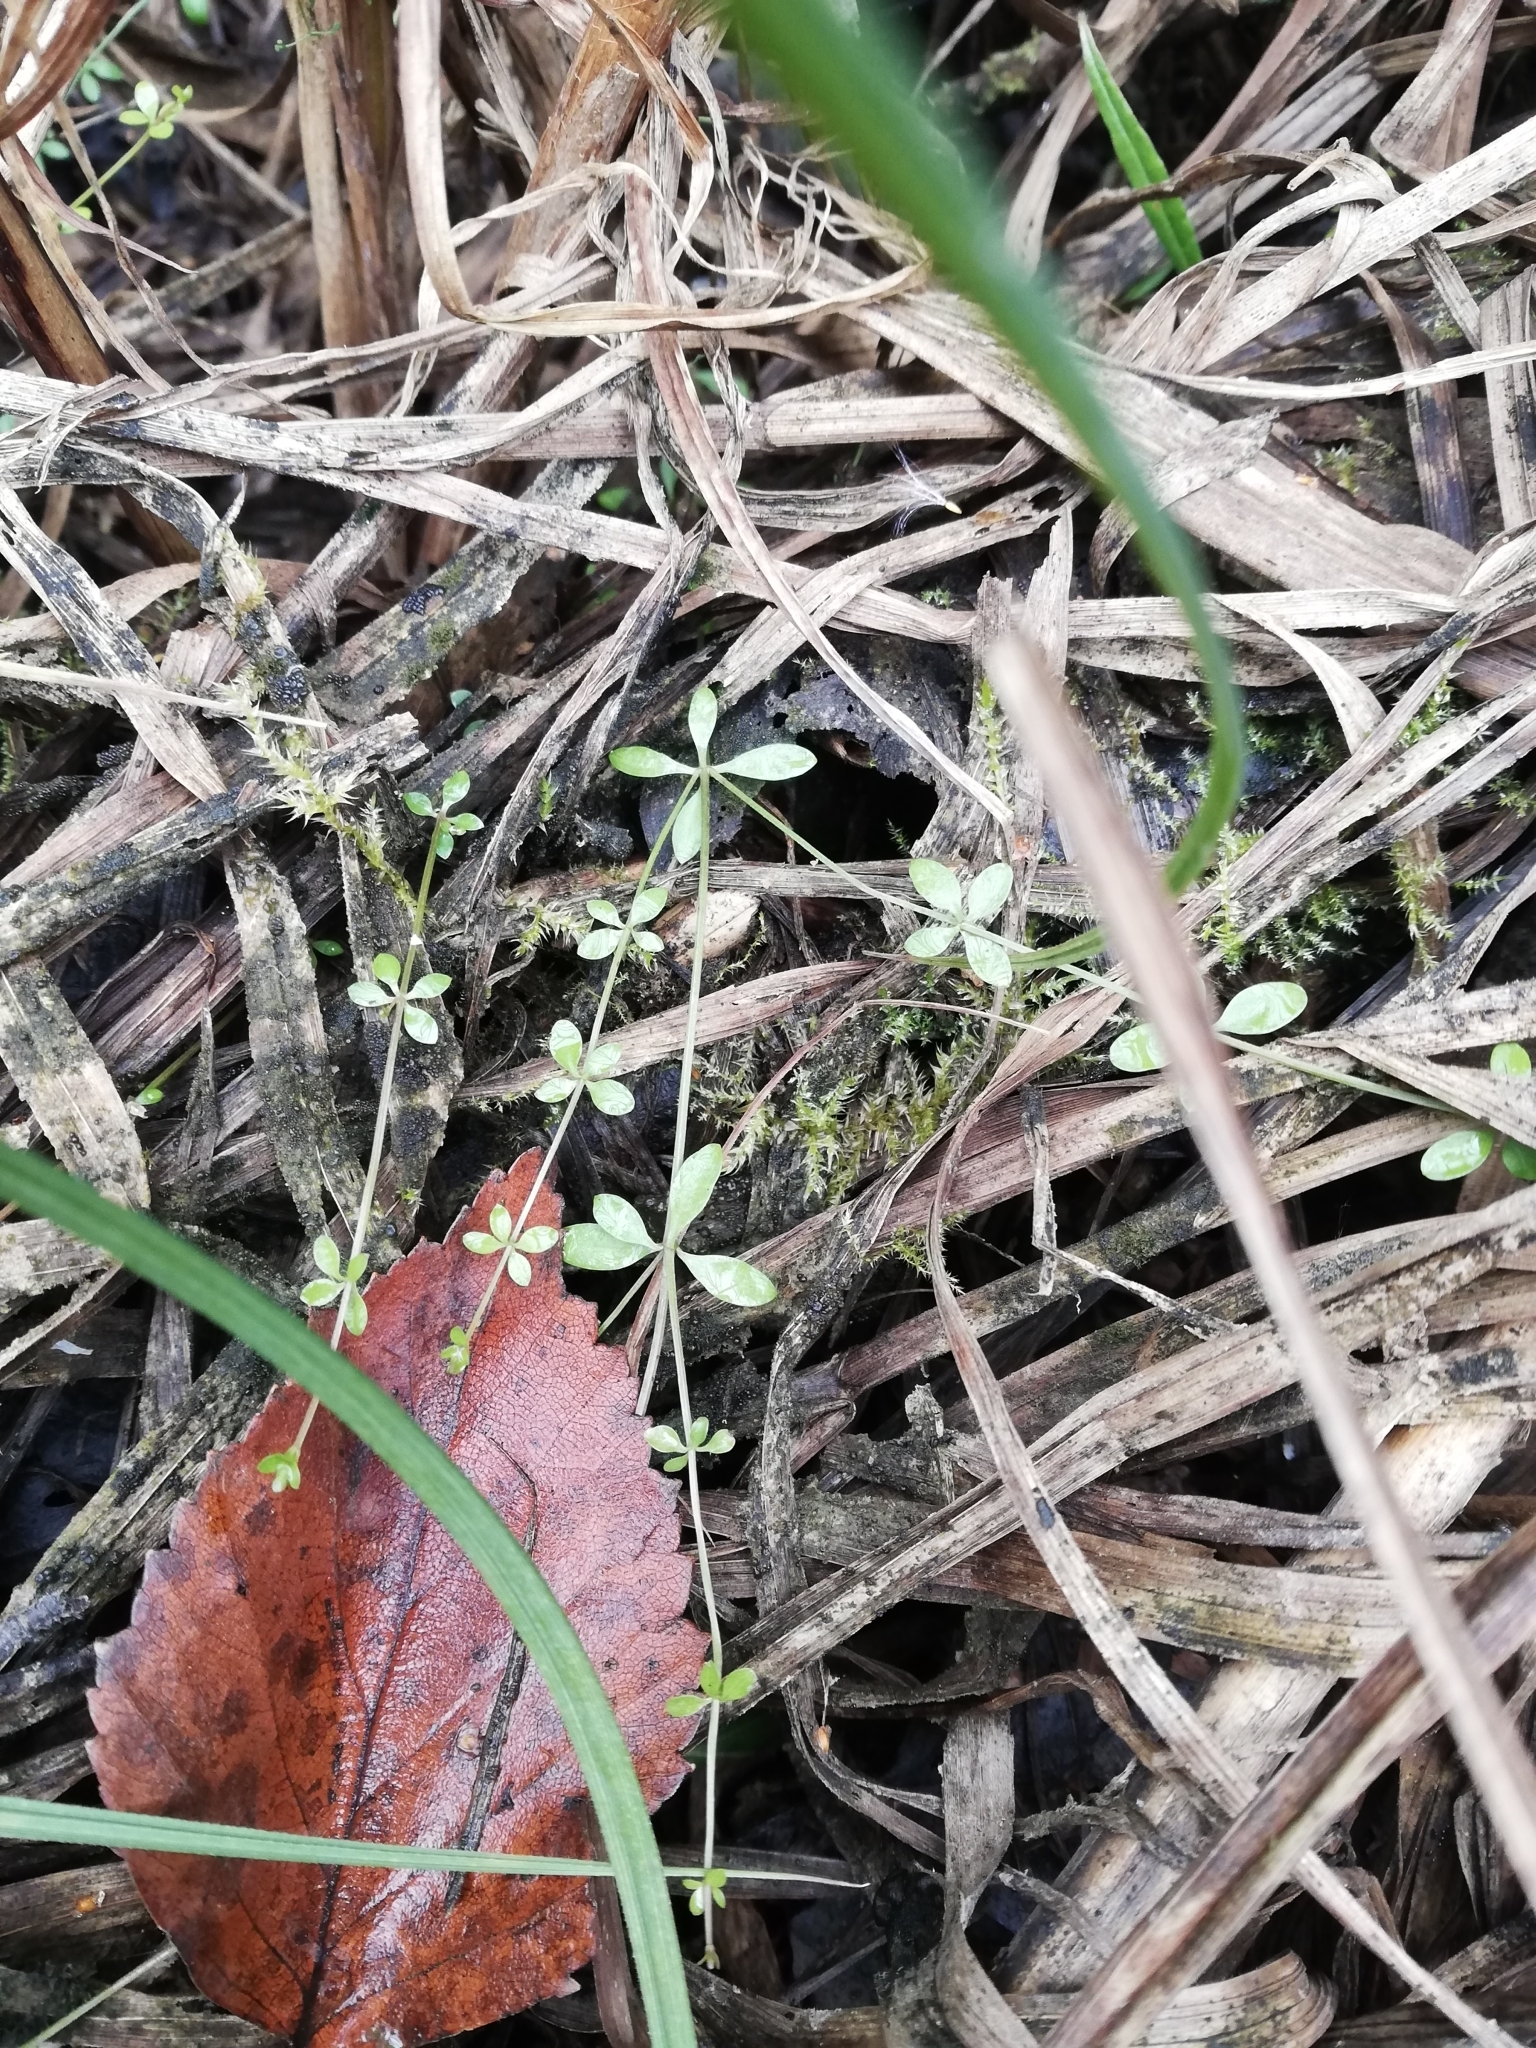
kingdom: Plantae
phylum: Tracheophyta
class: Magnoliopsida
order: Gentianales
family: Rubiaceae
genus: Galium
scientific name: Galium palustre
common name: Common marsh-bedstraw
